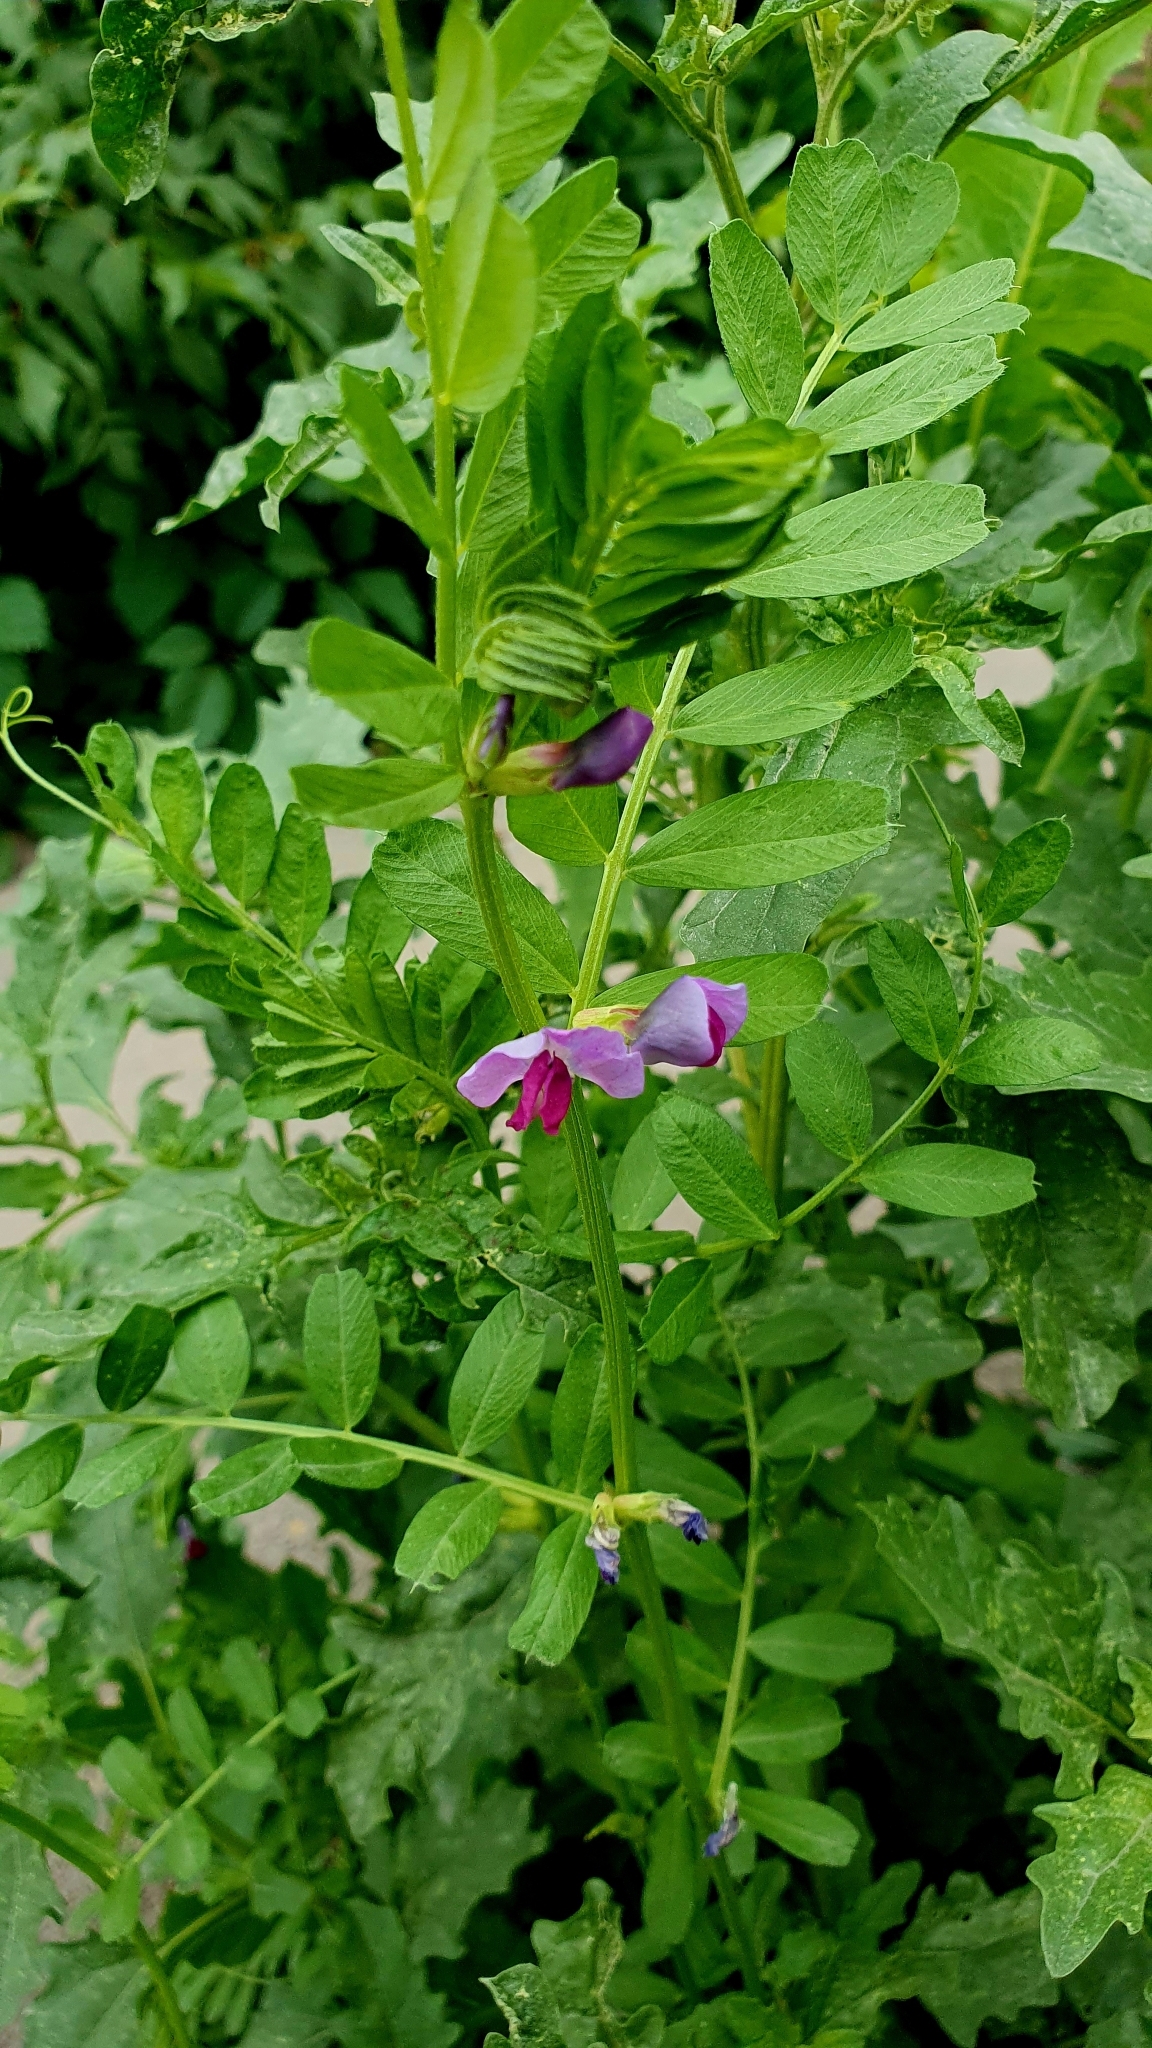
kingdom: Plantae
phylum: Tracheophyta
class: Magnoliopsida
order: Fabales
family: Fabaceae
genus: Vicia
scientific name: Vicia sativa
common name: Garden vetch
